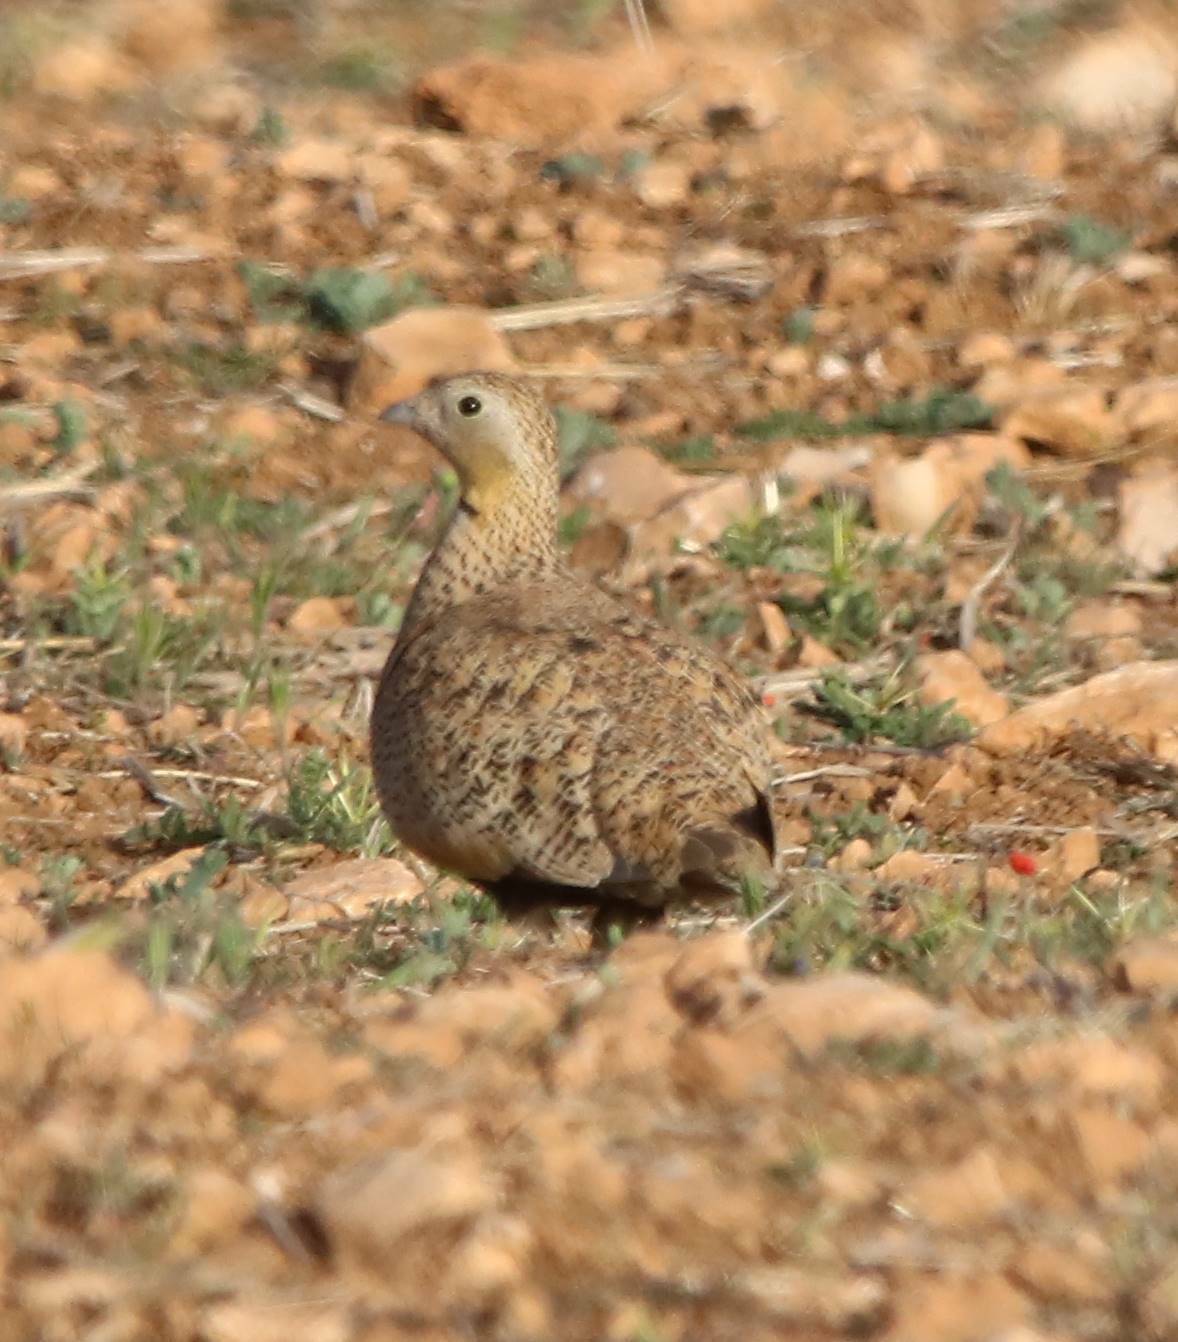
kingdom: Animalia
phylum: Chordata
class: Aves
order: Pteroclidiformes
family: Pteroclididae
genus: Pterocles
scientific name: Pterocles orientalis
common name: Black-bellied sandgrouse
